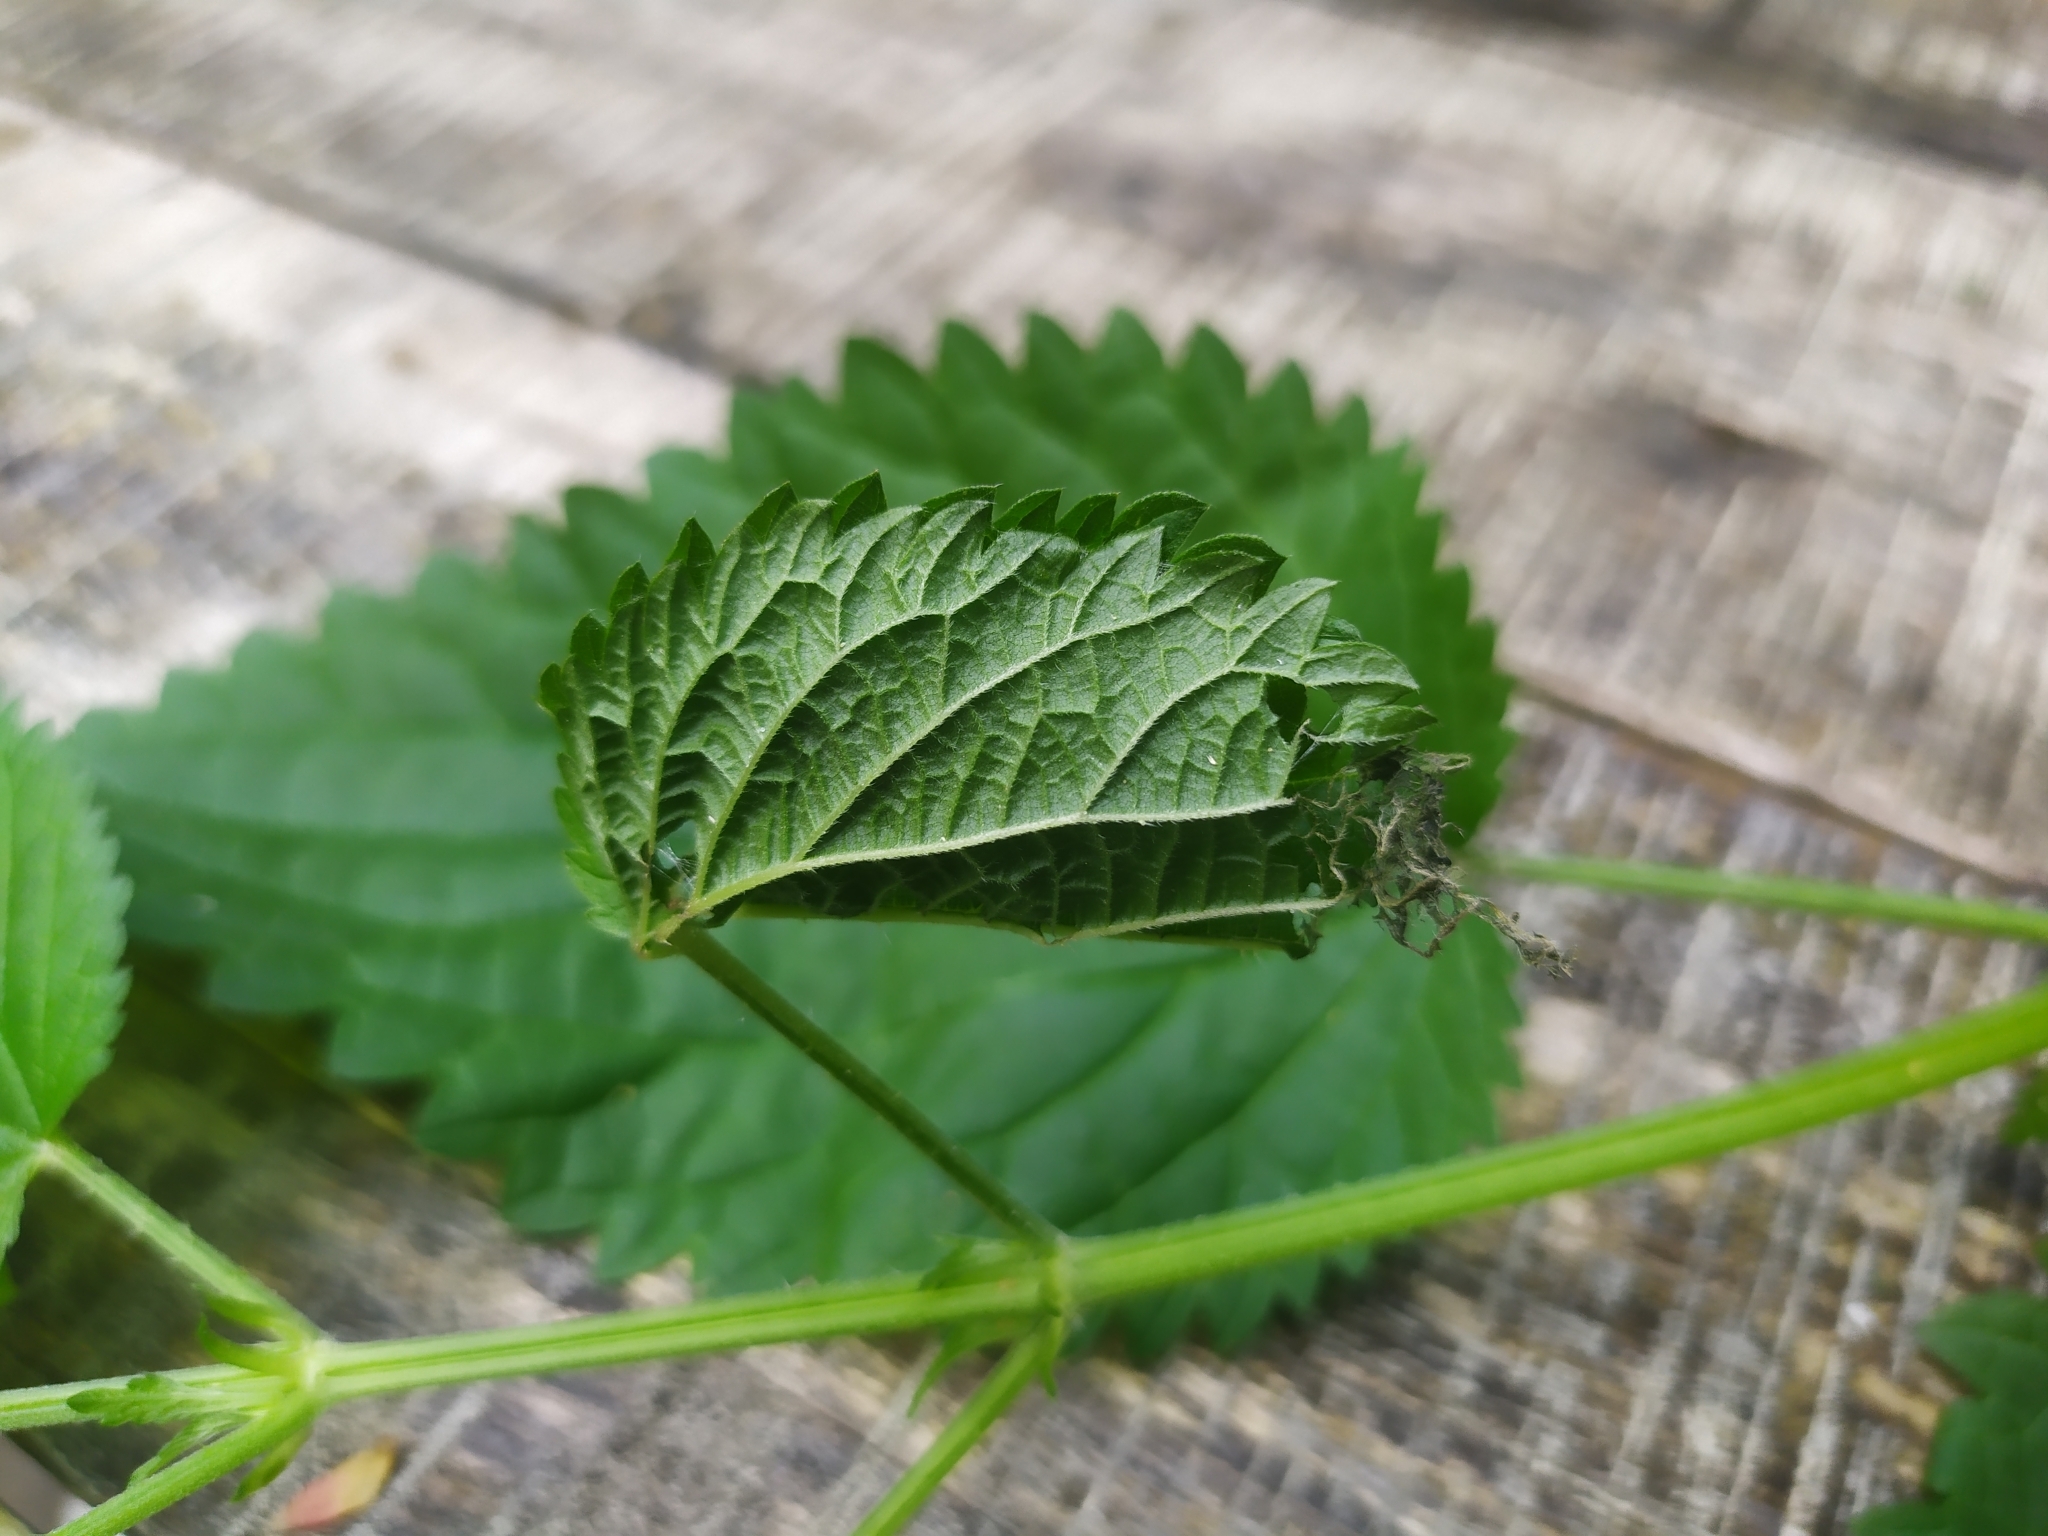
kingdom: Animalia
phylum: Arthropoda
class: Insecta
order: Lepidoptera
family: Nymphalidae
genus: Vanessa
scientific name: Vanessa atalanta
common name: Red admiral
